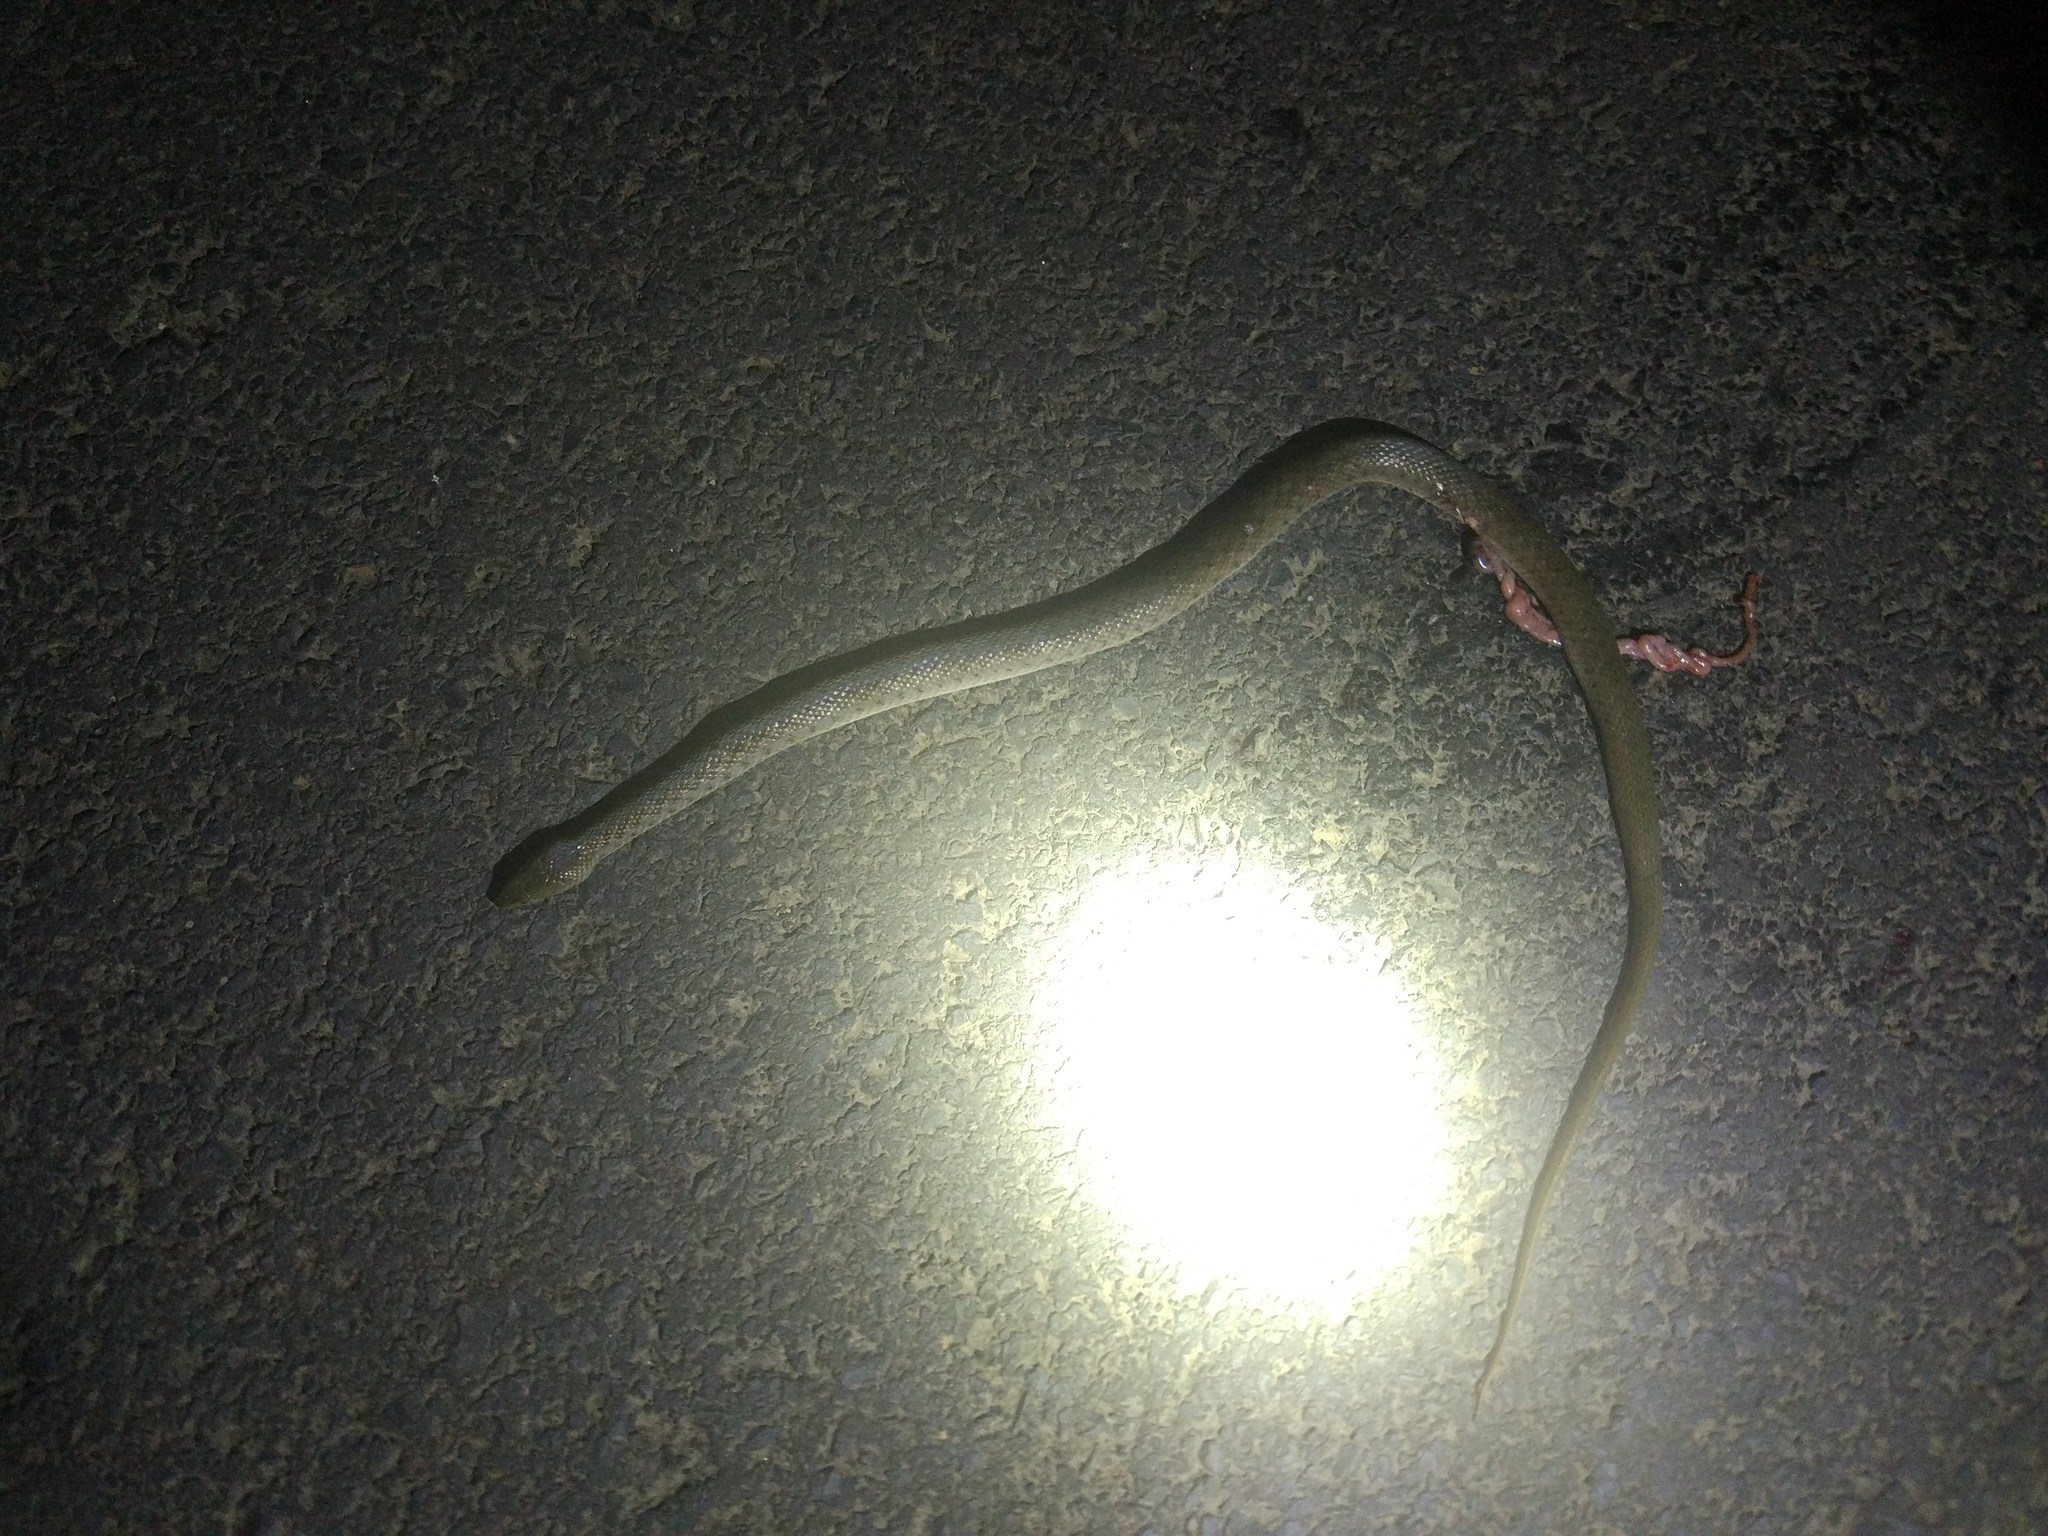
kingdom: Animalia
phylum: Chordata
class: Squamata
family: Colubridae
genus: Fowlea
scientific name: Fowlea piscator
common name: Asiatic water snake
